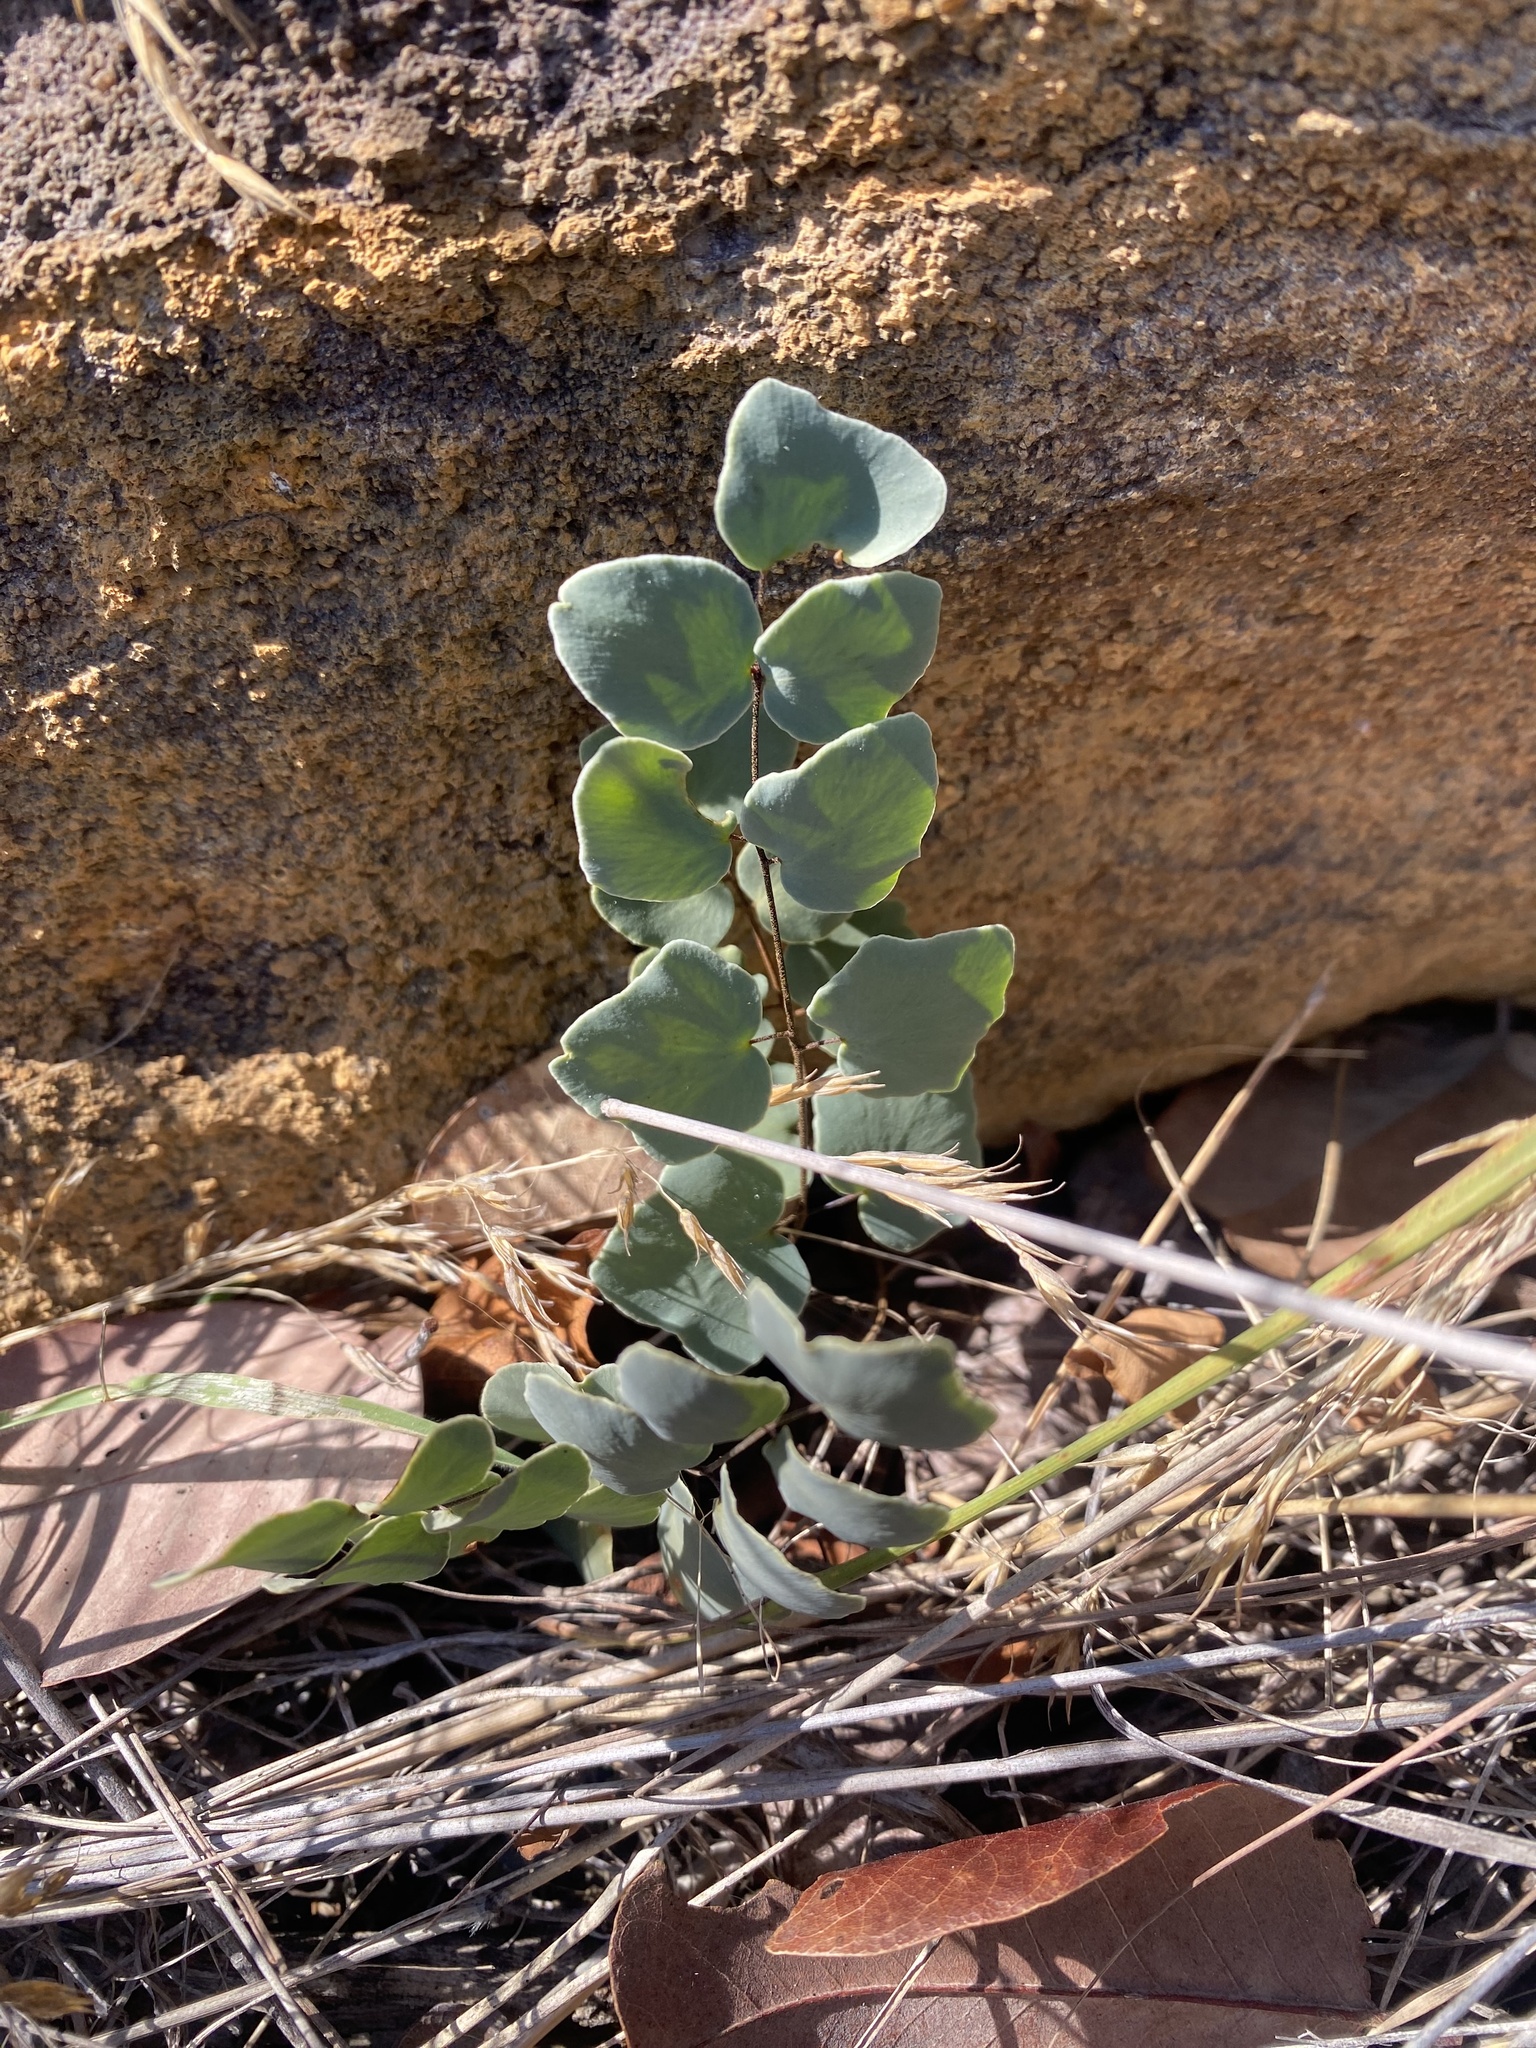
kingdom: Plantae
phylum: Tracheophyta
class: Polypodiopsida
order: Polypodiales
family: Pteridaceae
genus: Pellaea
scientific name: Pellaea calomelanos
